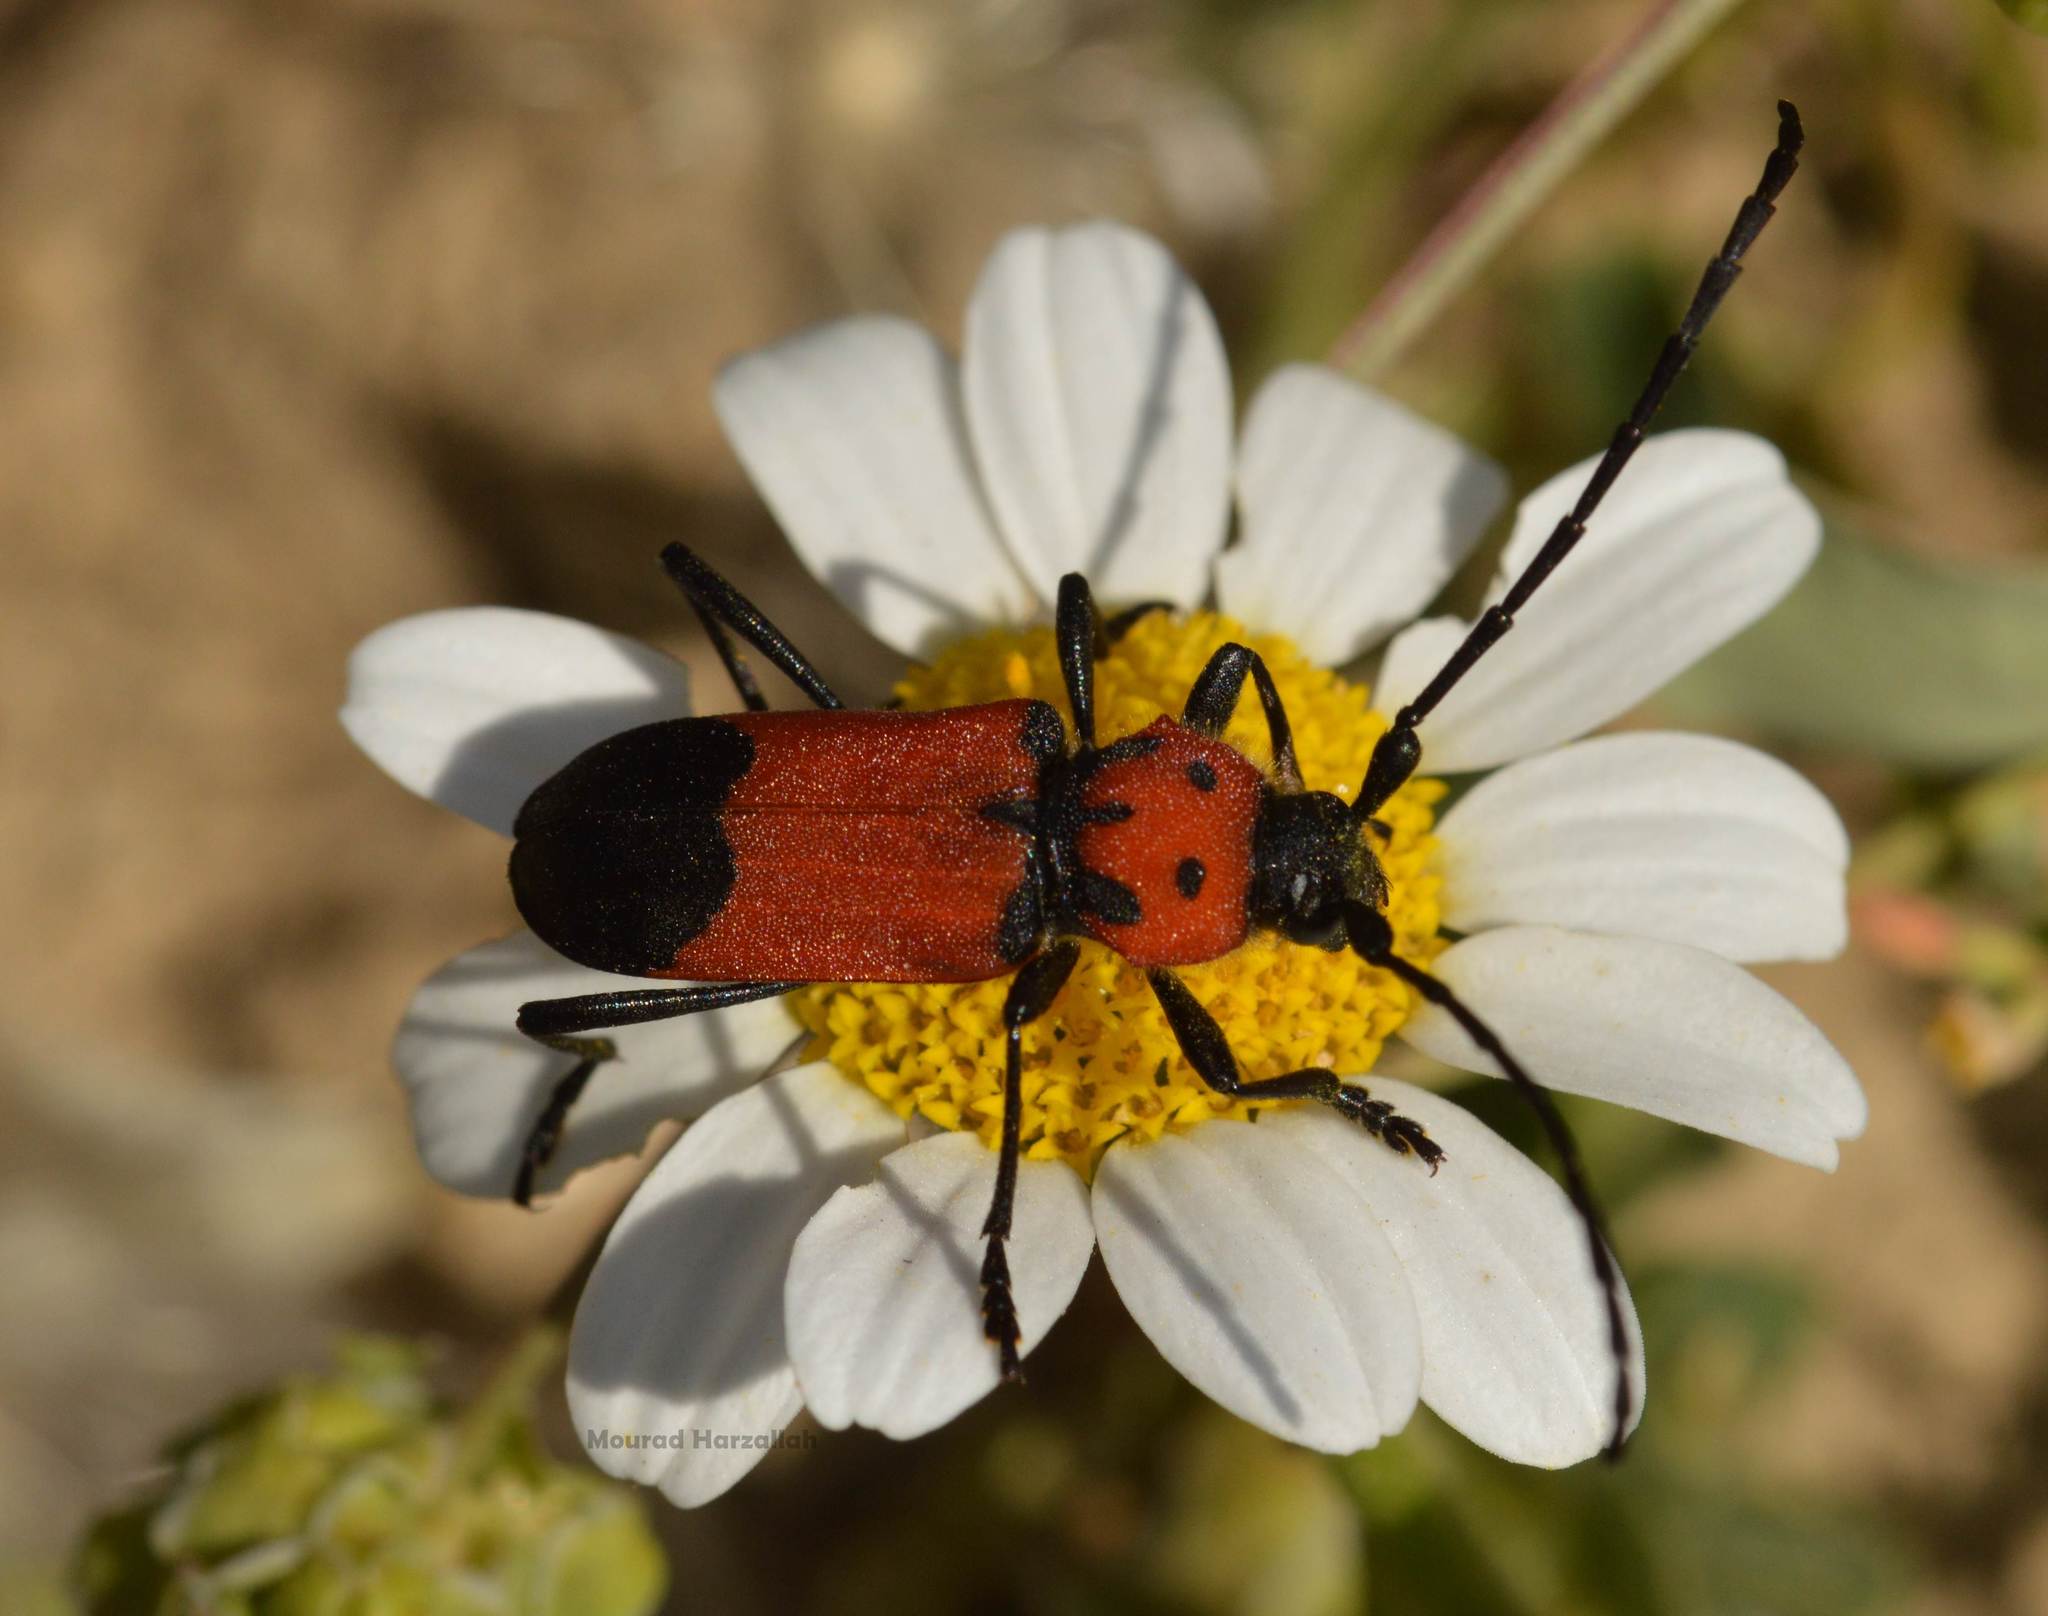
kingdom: Animalia
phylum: Arthropoda
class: Insecta
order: Coleoptera
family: Cerambycidae
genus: Purpuricenus
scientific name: Purpuricenus desfontainii
